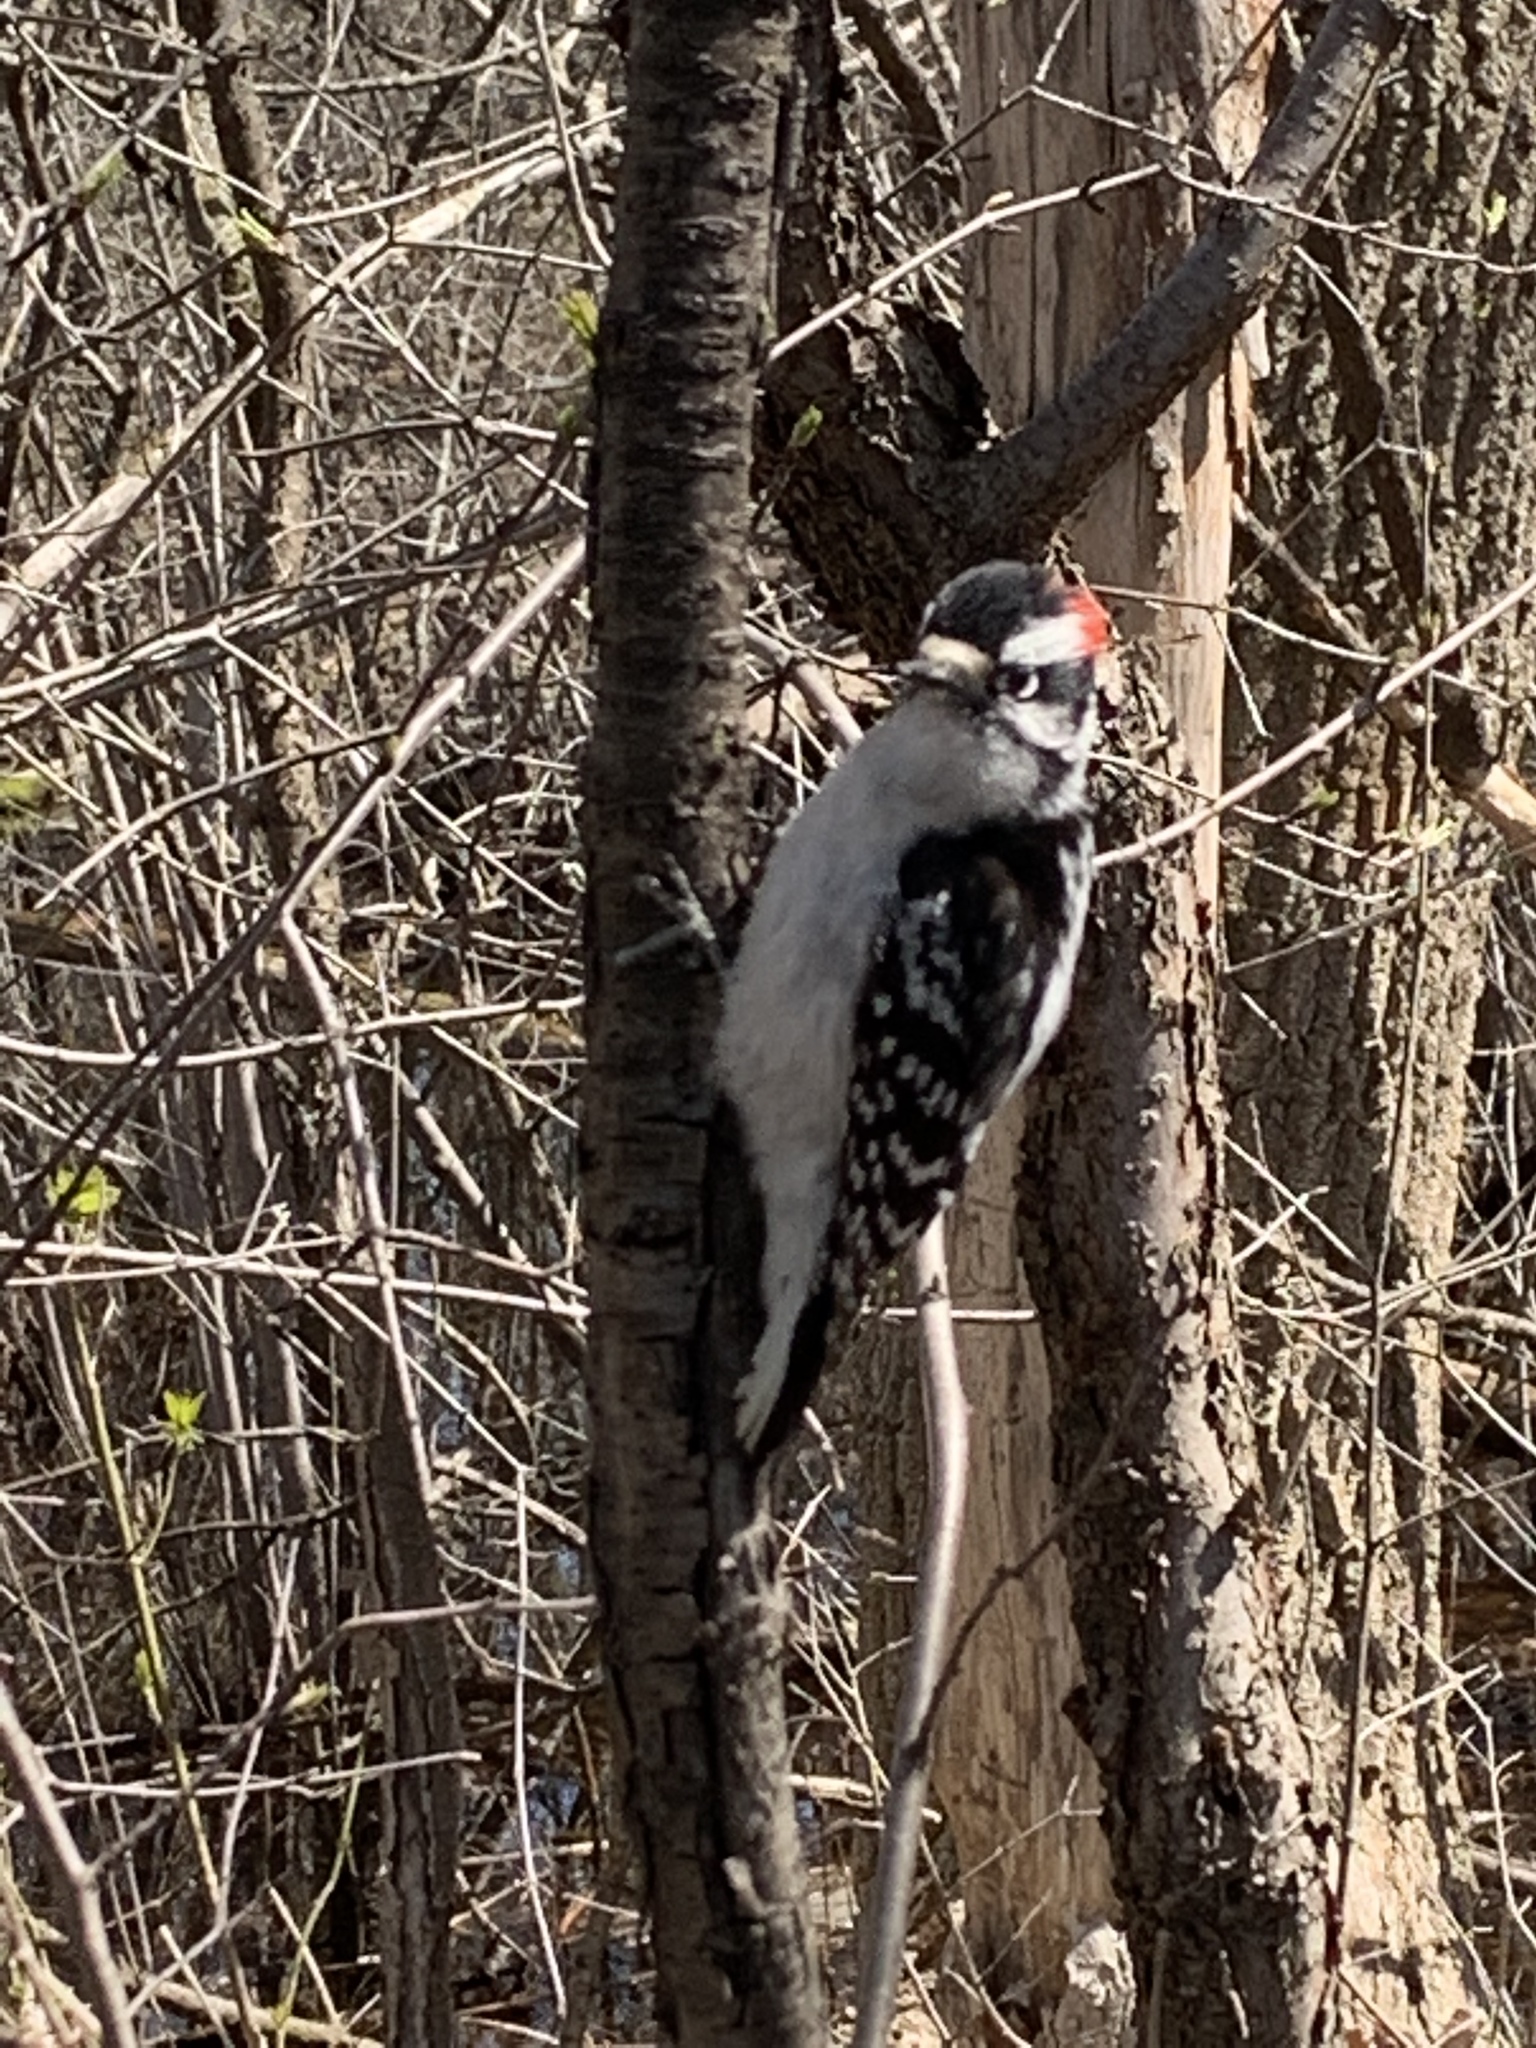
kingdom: Animalia
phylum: Chordata
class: Aves
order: Piciformes
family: Picidae
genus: Dryobates
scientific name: Dryobates pubescens
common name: Downy woodpecker
